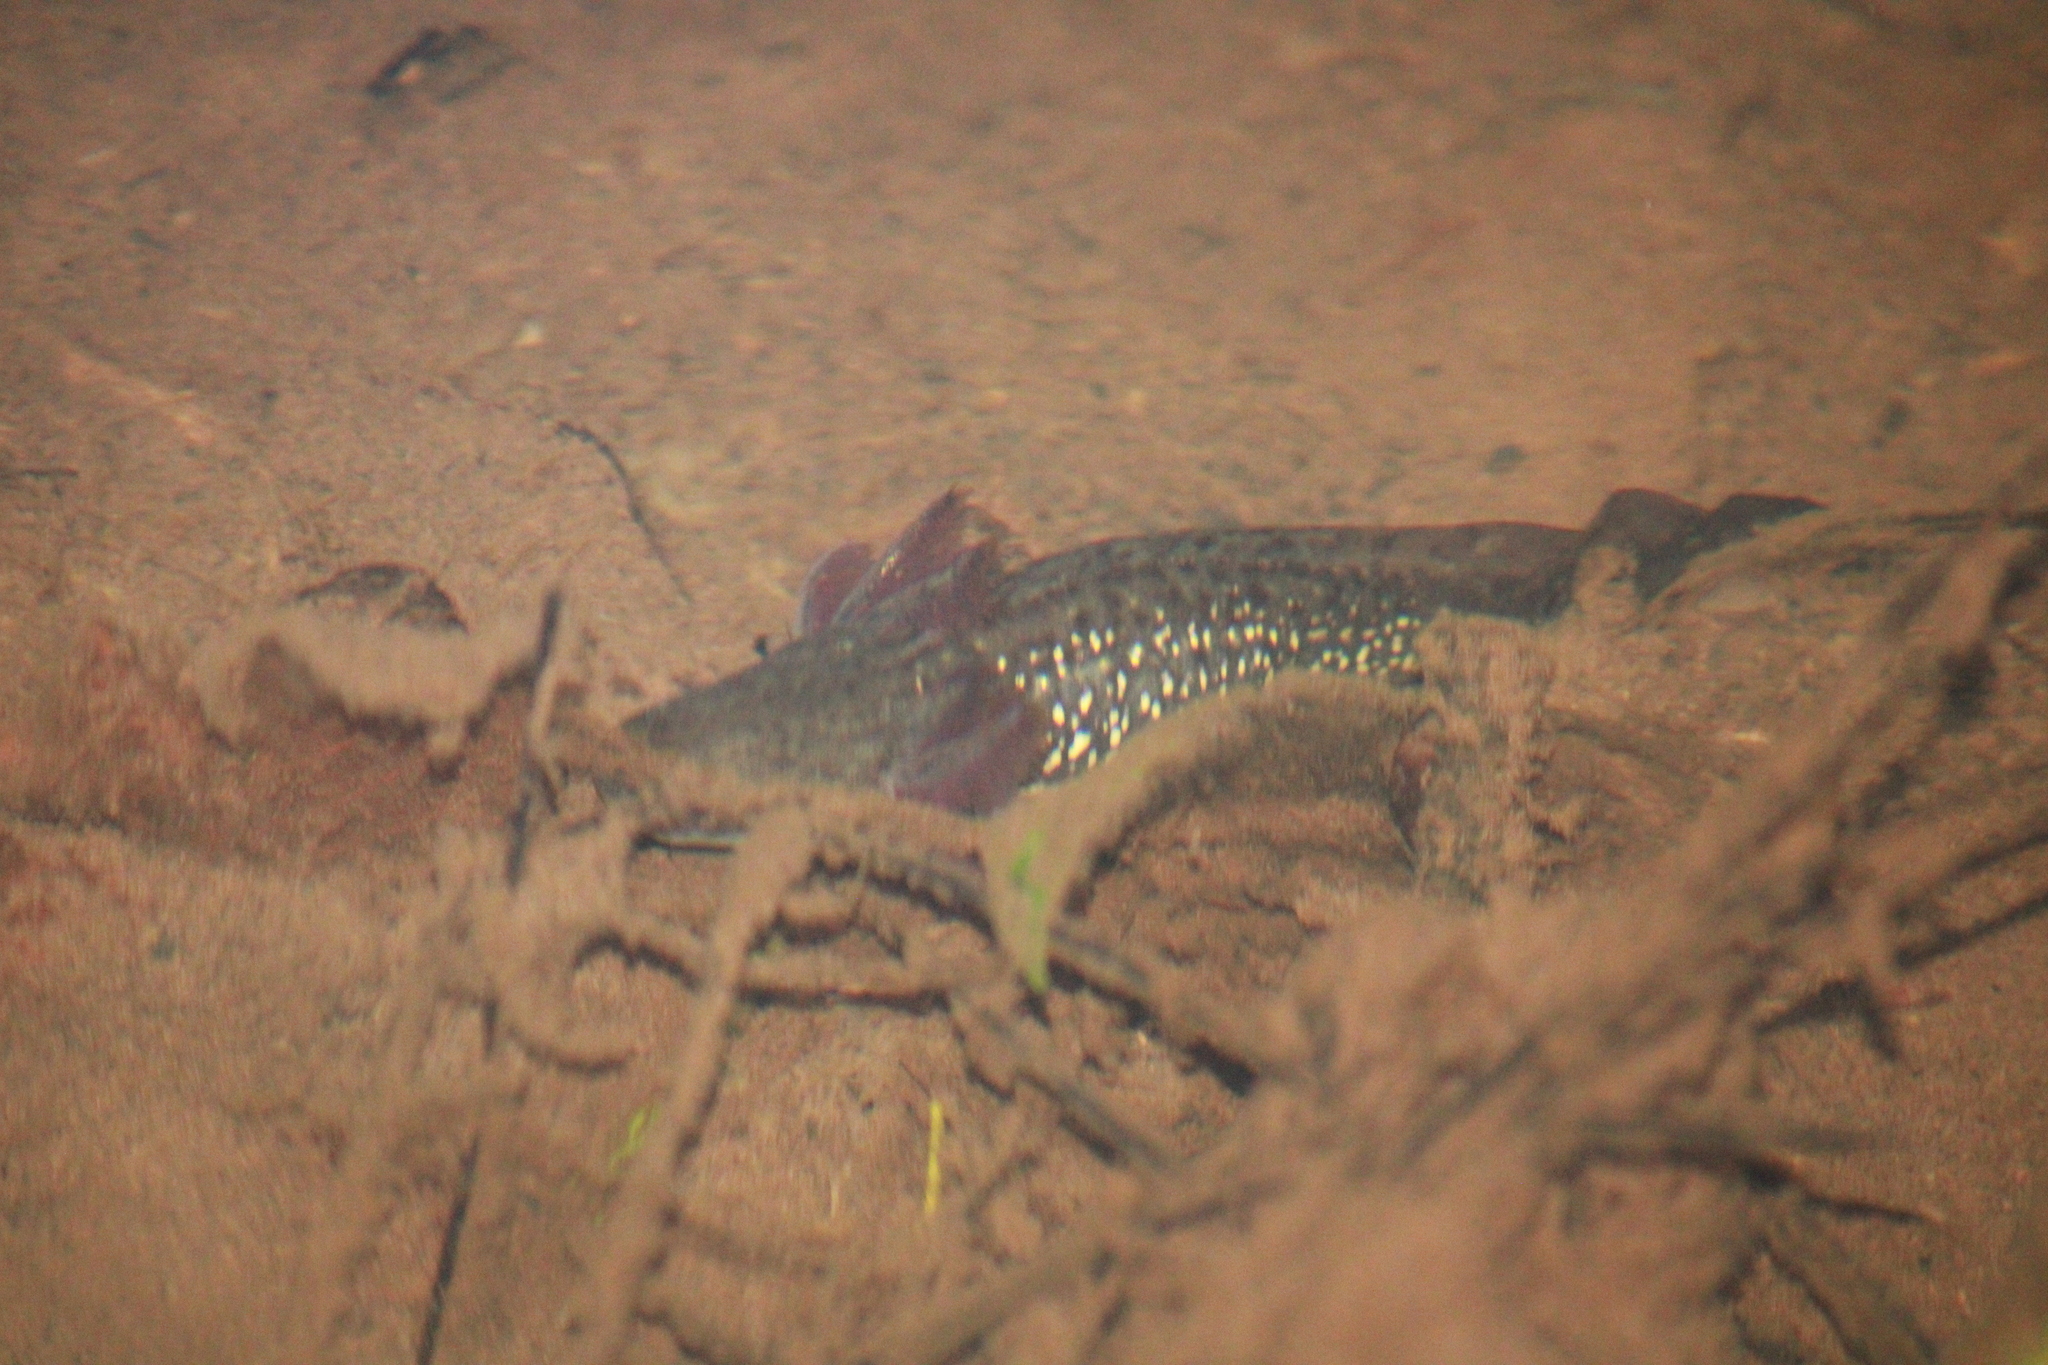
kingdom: Animalia
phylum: Chordata
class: Amphibia
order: Caudata
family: Ambystomatidae
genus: Ambystoma
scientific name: Ambystoma flavipiperatum
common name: Yellow-peppered salamander
